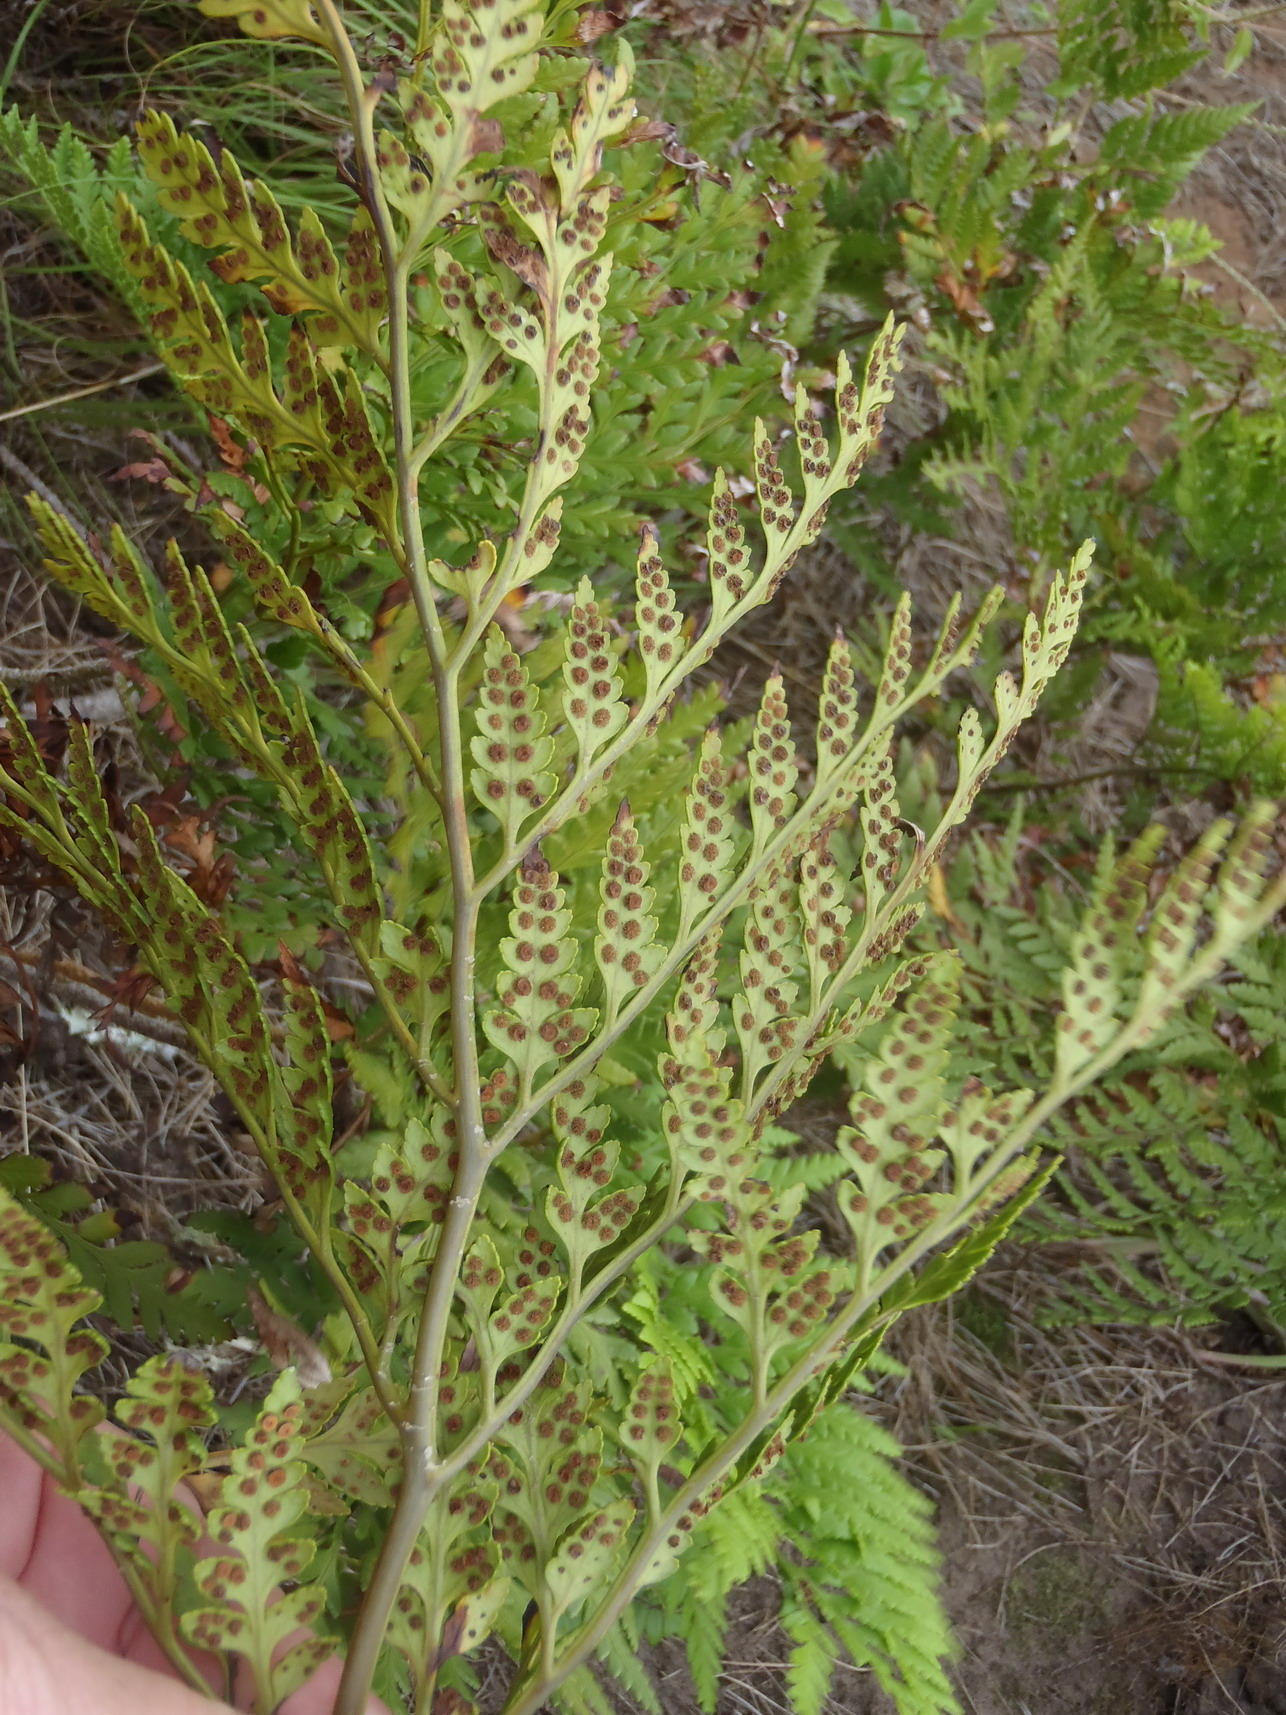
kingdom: Plantae
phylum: Tracheophyta
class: Polypodiopsida
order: Polypodiales
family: Dryopteridaceae
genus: Rumohra
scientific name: Rumohra adiantiformis
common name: Leather fern
